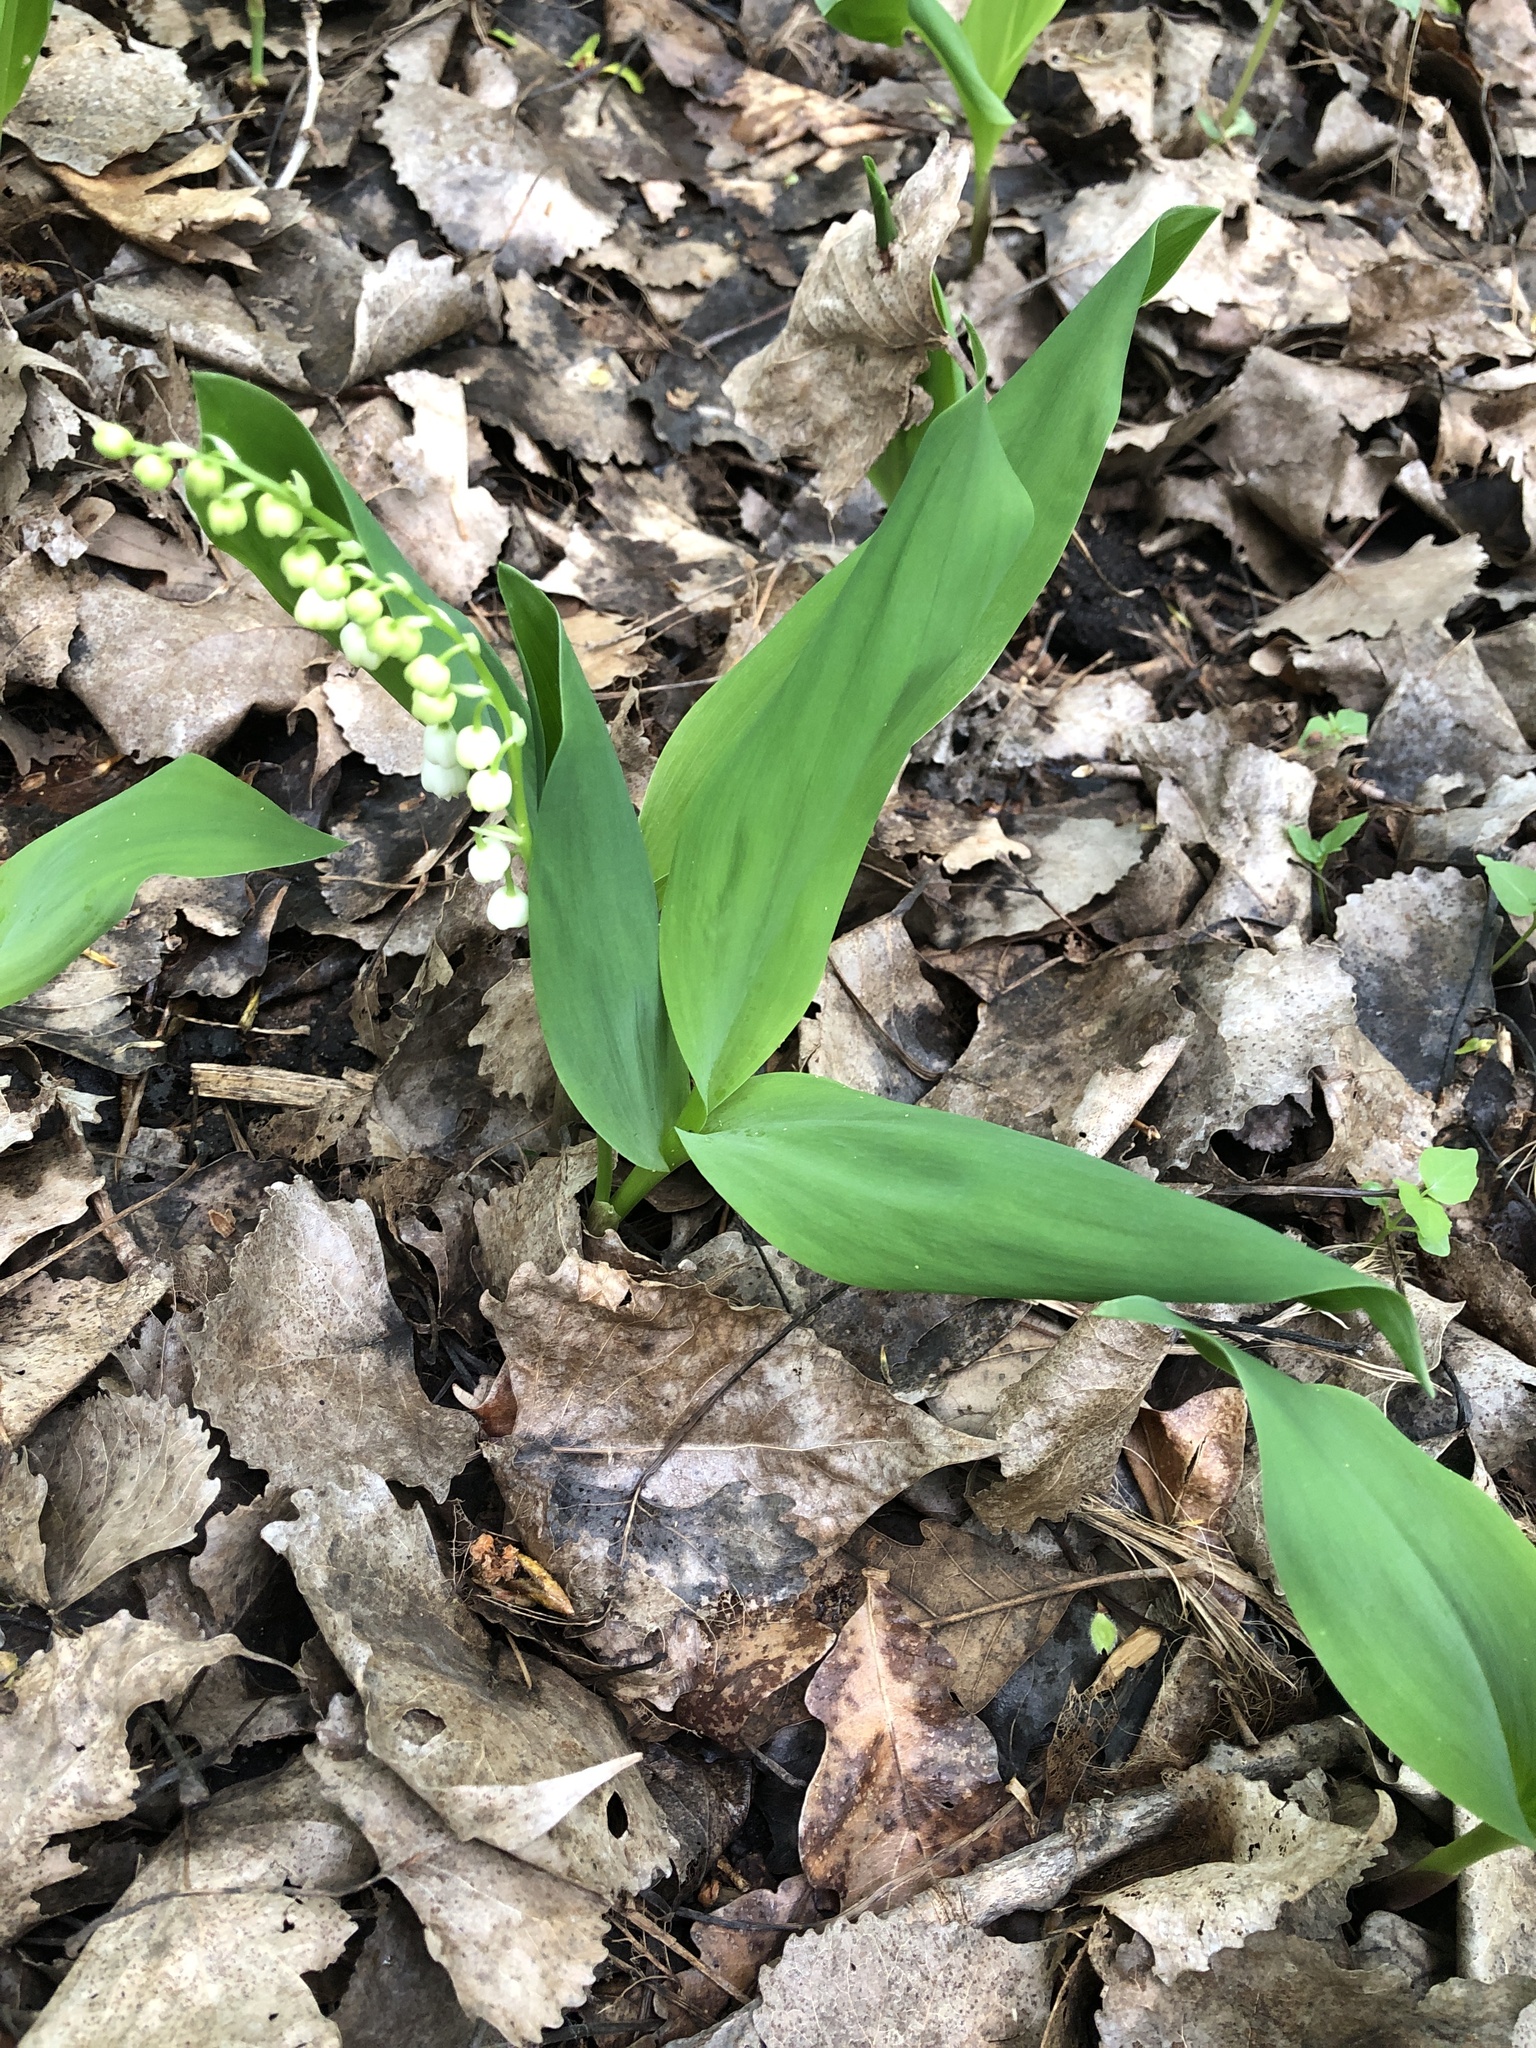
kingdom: Plantae
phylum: Tracheophyta
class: Liliopsida
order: Asparagales
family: Asparagaceae
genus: Convallaria
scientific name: Convallaria majalis
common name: Lily-of-the-valley
